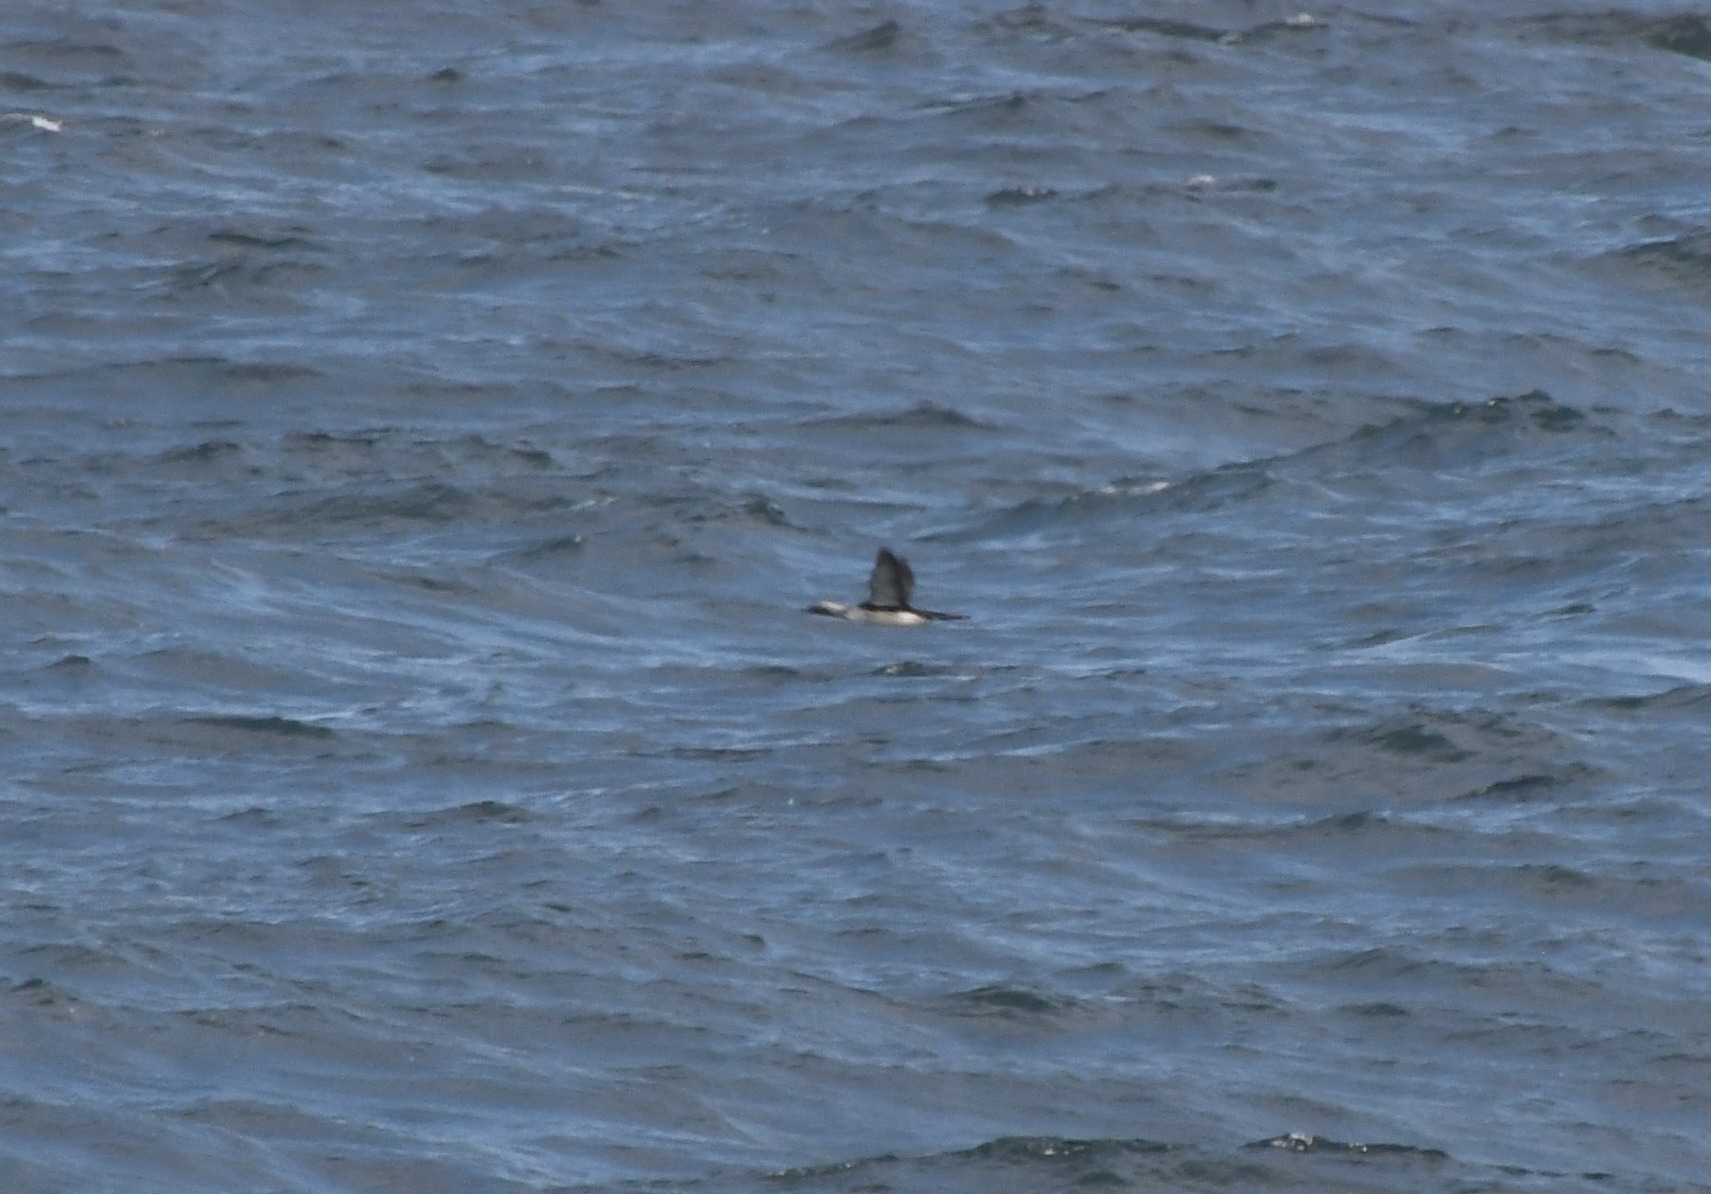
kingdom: Animalia
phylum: Chordata
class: Aves
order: Gaviiformes
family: Gaviidae
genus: Gavia
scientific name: Gavia pacifica
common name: Pacific loon
